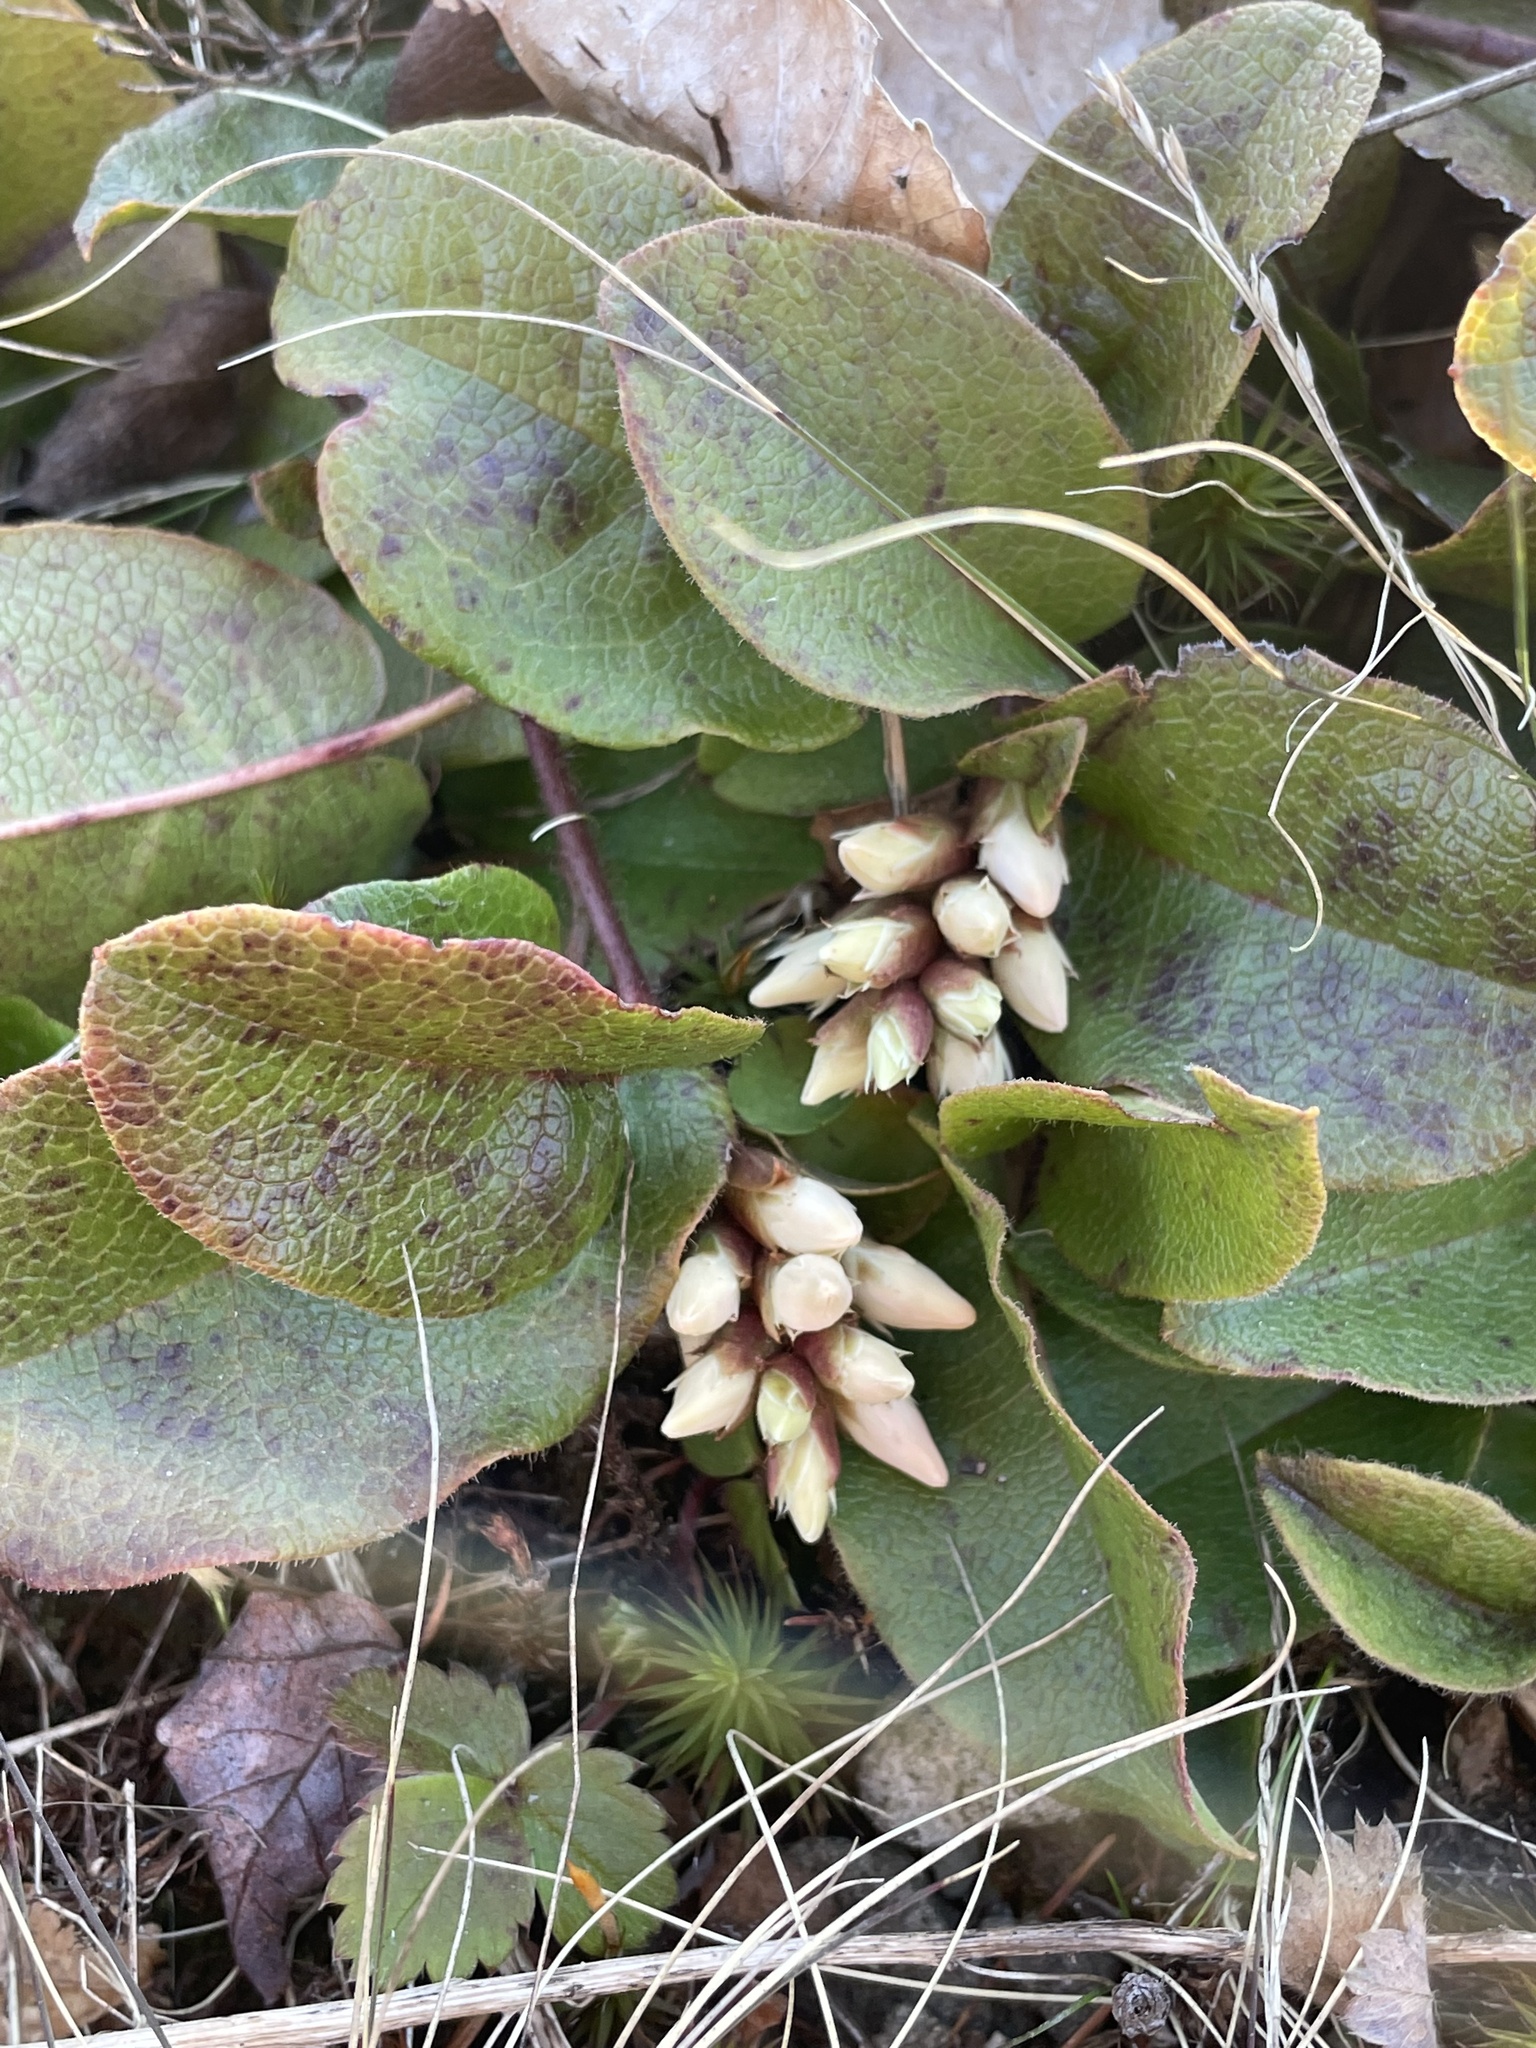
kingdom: Plantae
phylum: Tracheophyta
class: Magnoliopsida
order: Ericales
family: Ericaceae
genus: Epigaea
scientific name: Epigaea repens
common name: Gravelroot
